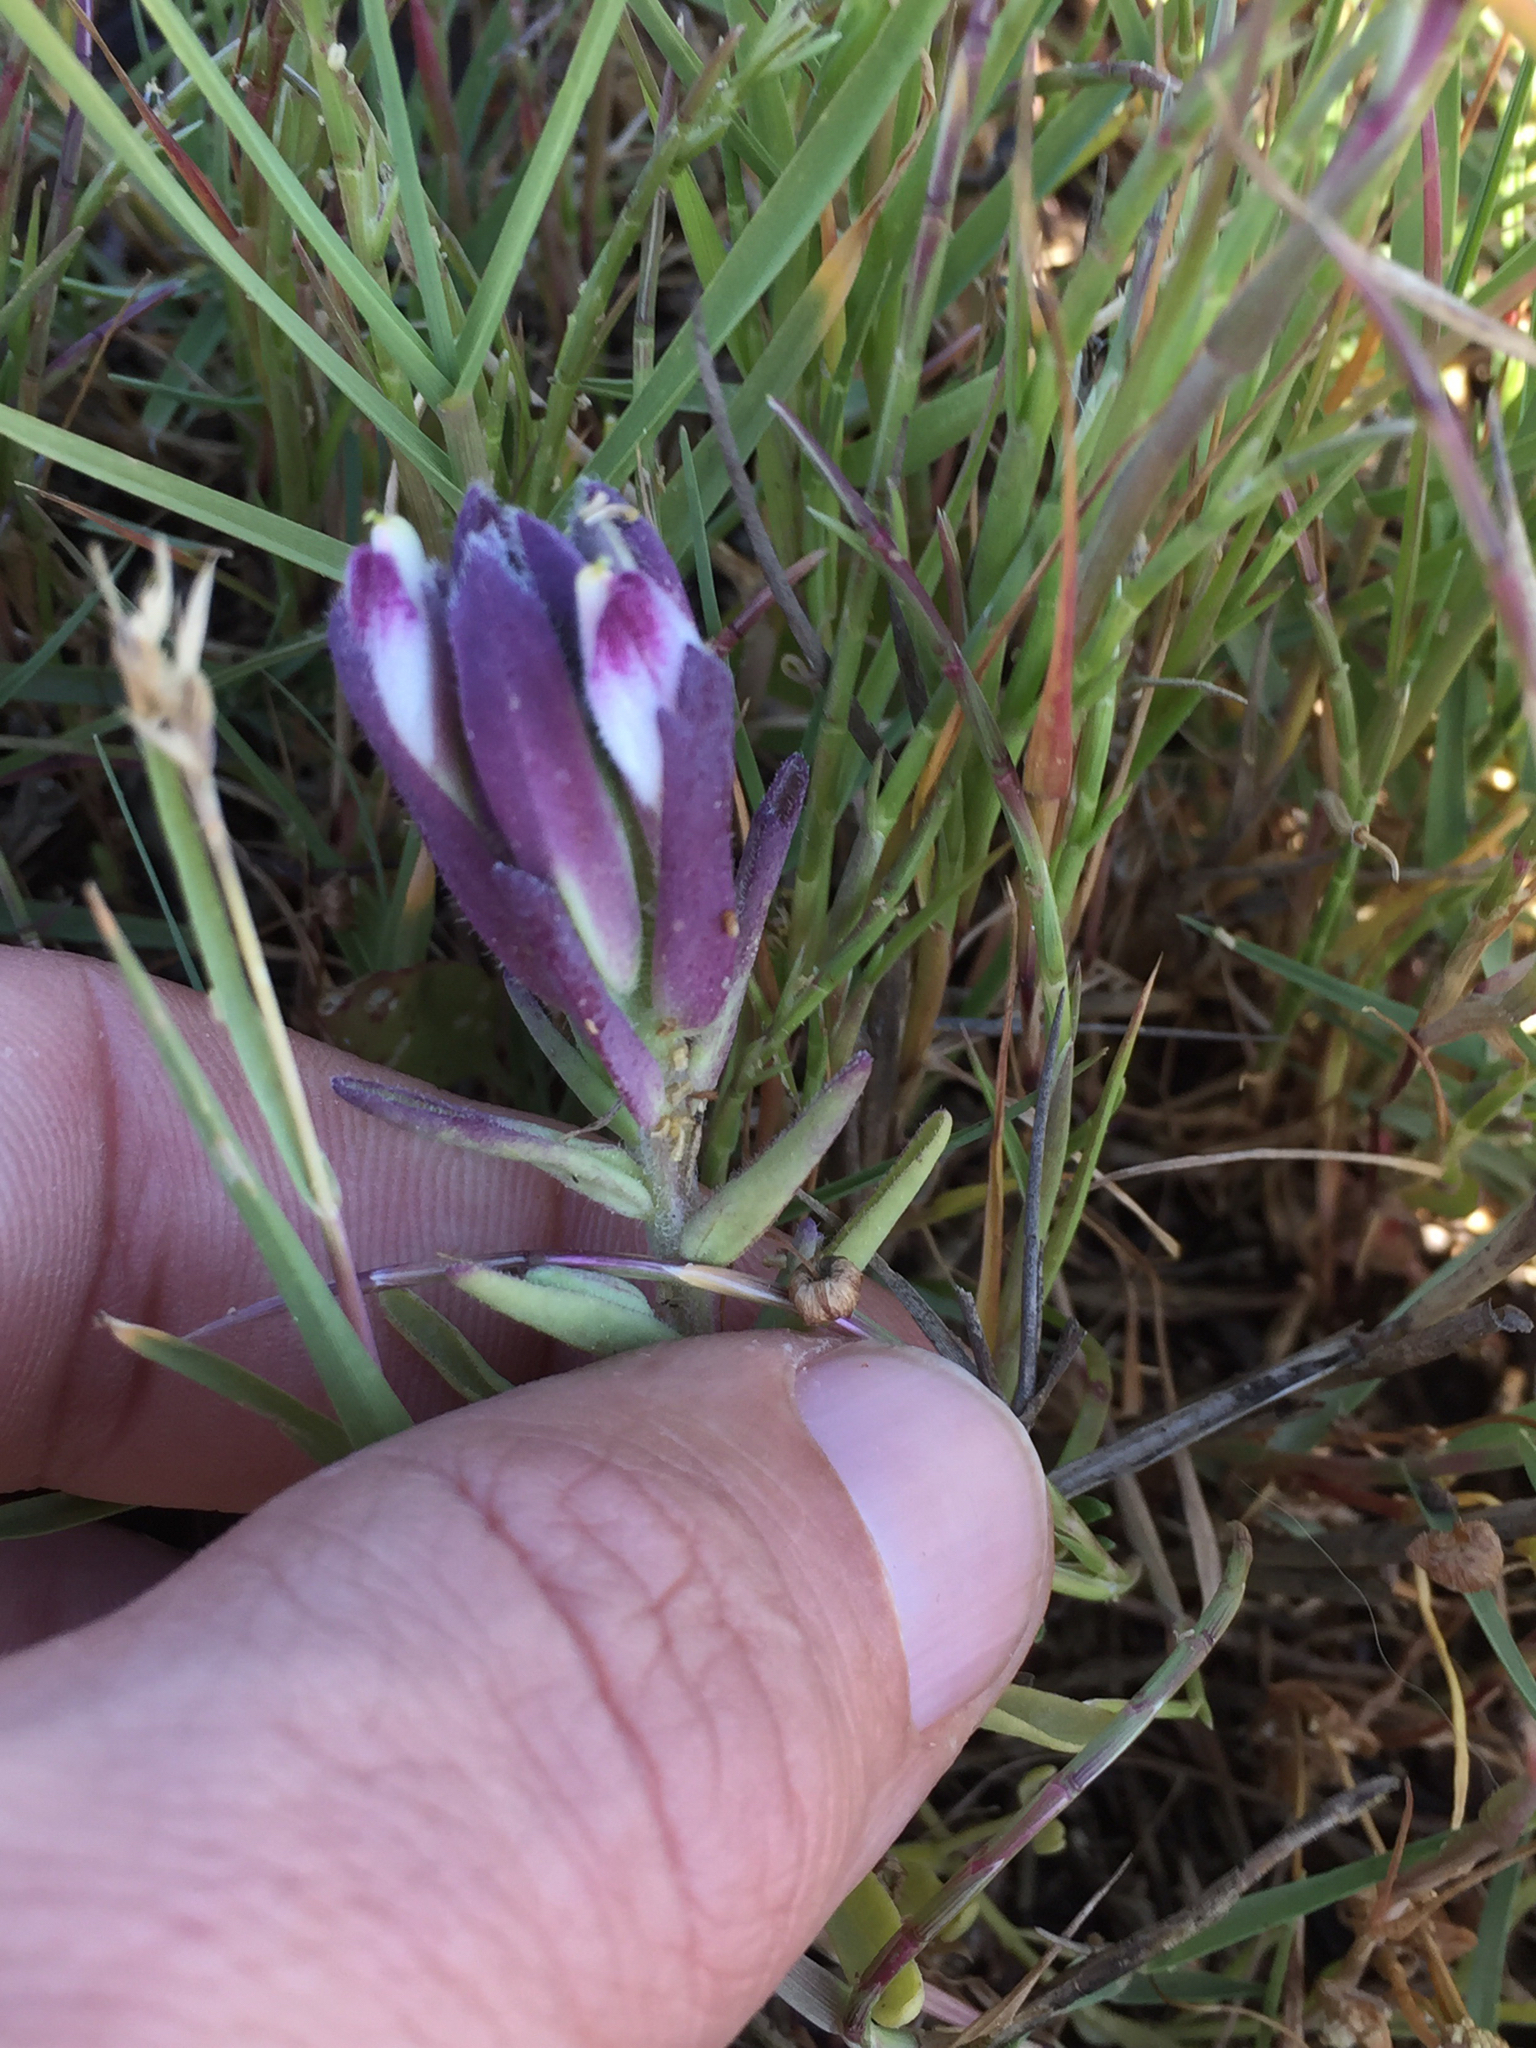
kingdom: Plantae
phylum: Tracheophyta
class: Magnoliopsida
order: Lamiales
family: Orobanchaceae
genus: Chloropyron
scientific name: Chloropyron maritimum
